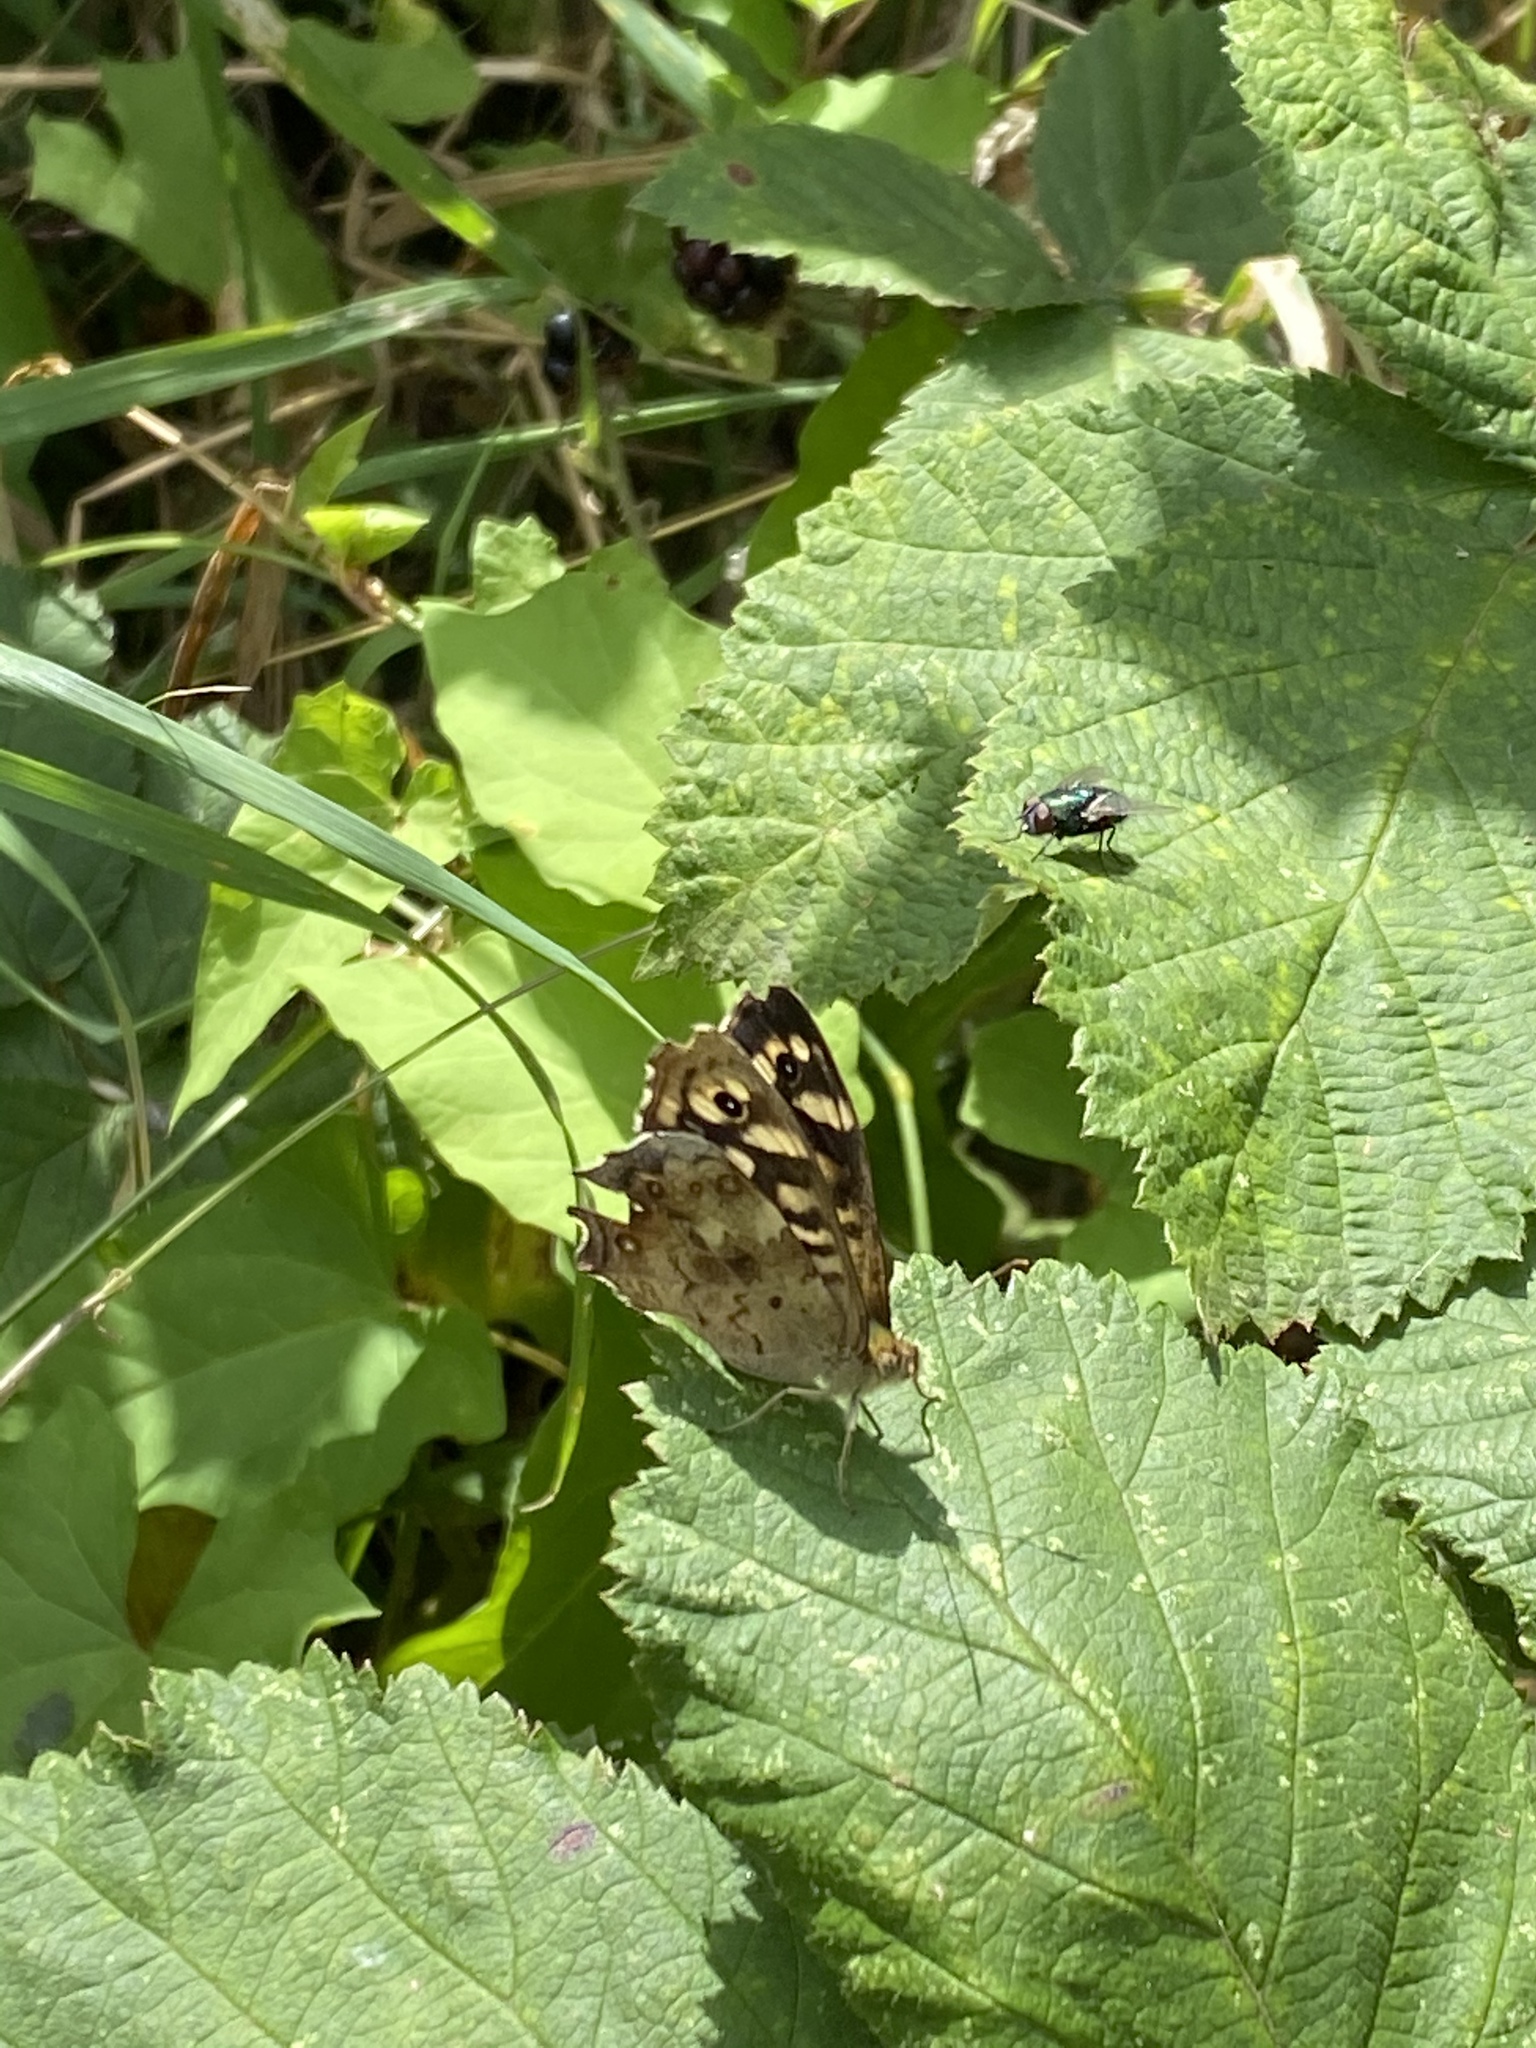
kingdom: Animalia
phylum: Arthropoda
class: Insecta
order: Lepidoptera
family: Nymphalidae
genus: Pararge
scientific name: Pararge aegeria
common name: Speckled wood
